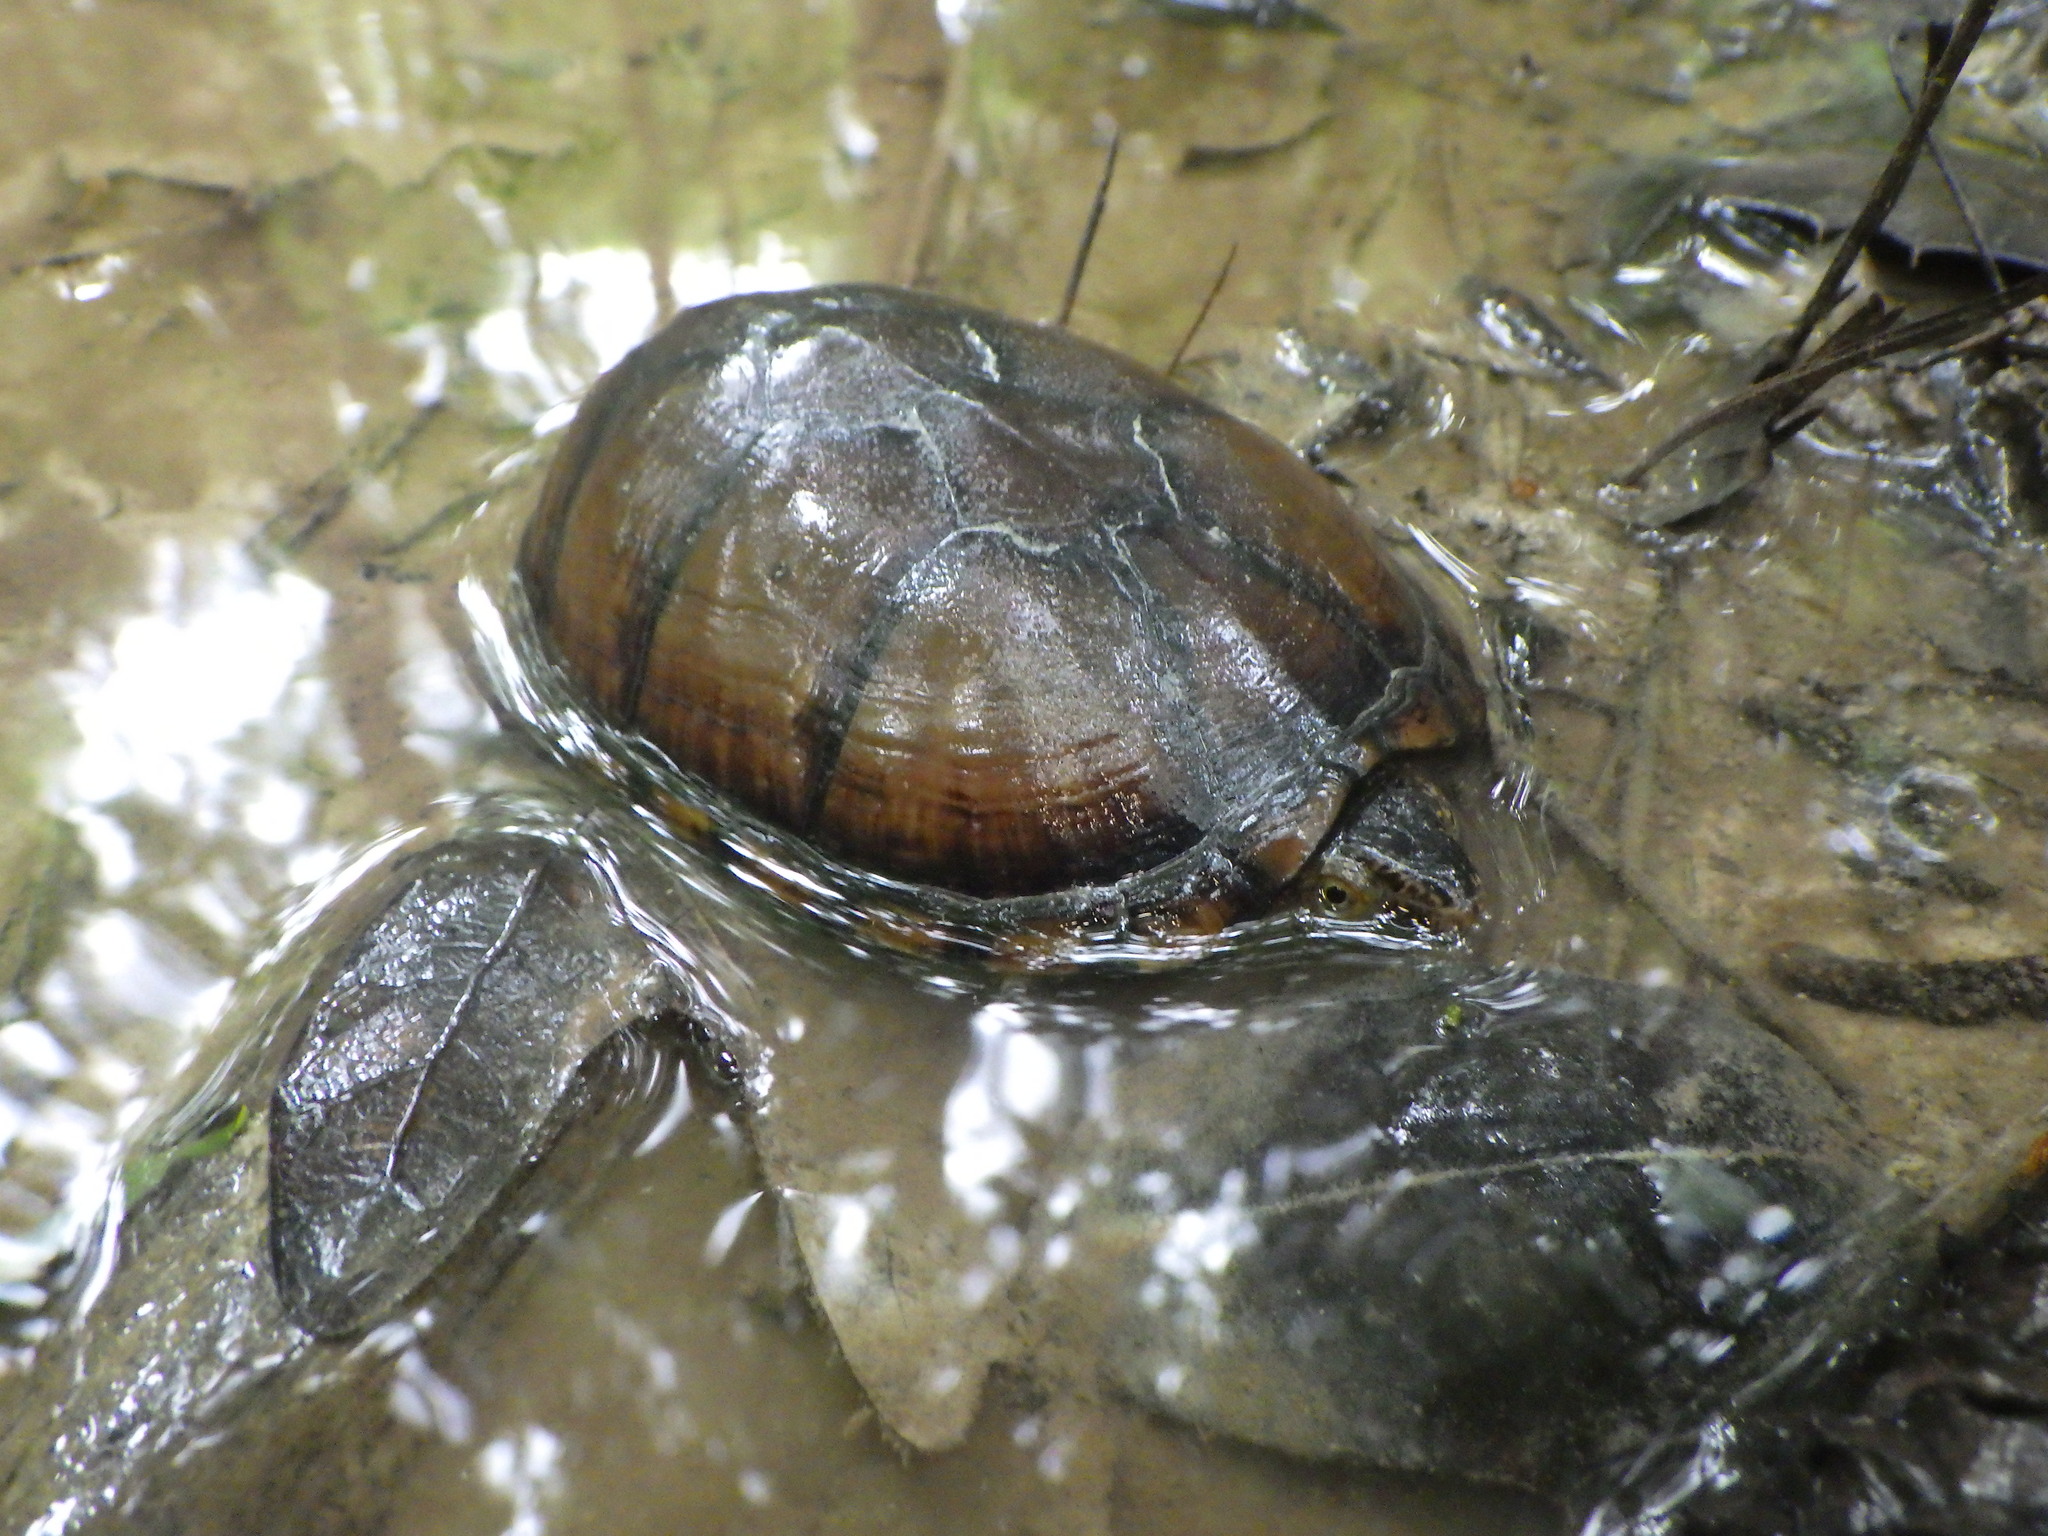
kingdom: Animalia
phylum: Chordata
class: Testudines
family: Kinosternidae
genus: Kinosternon
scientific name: Kinosternon subrubrum
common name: Eastern mud turtle
